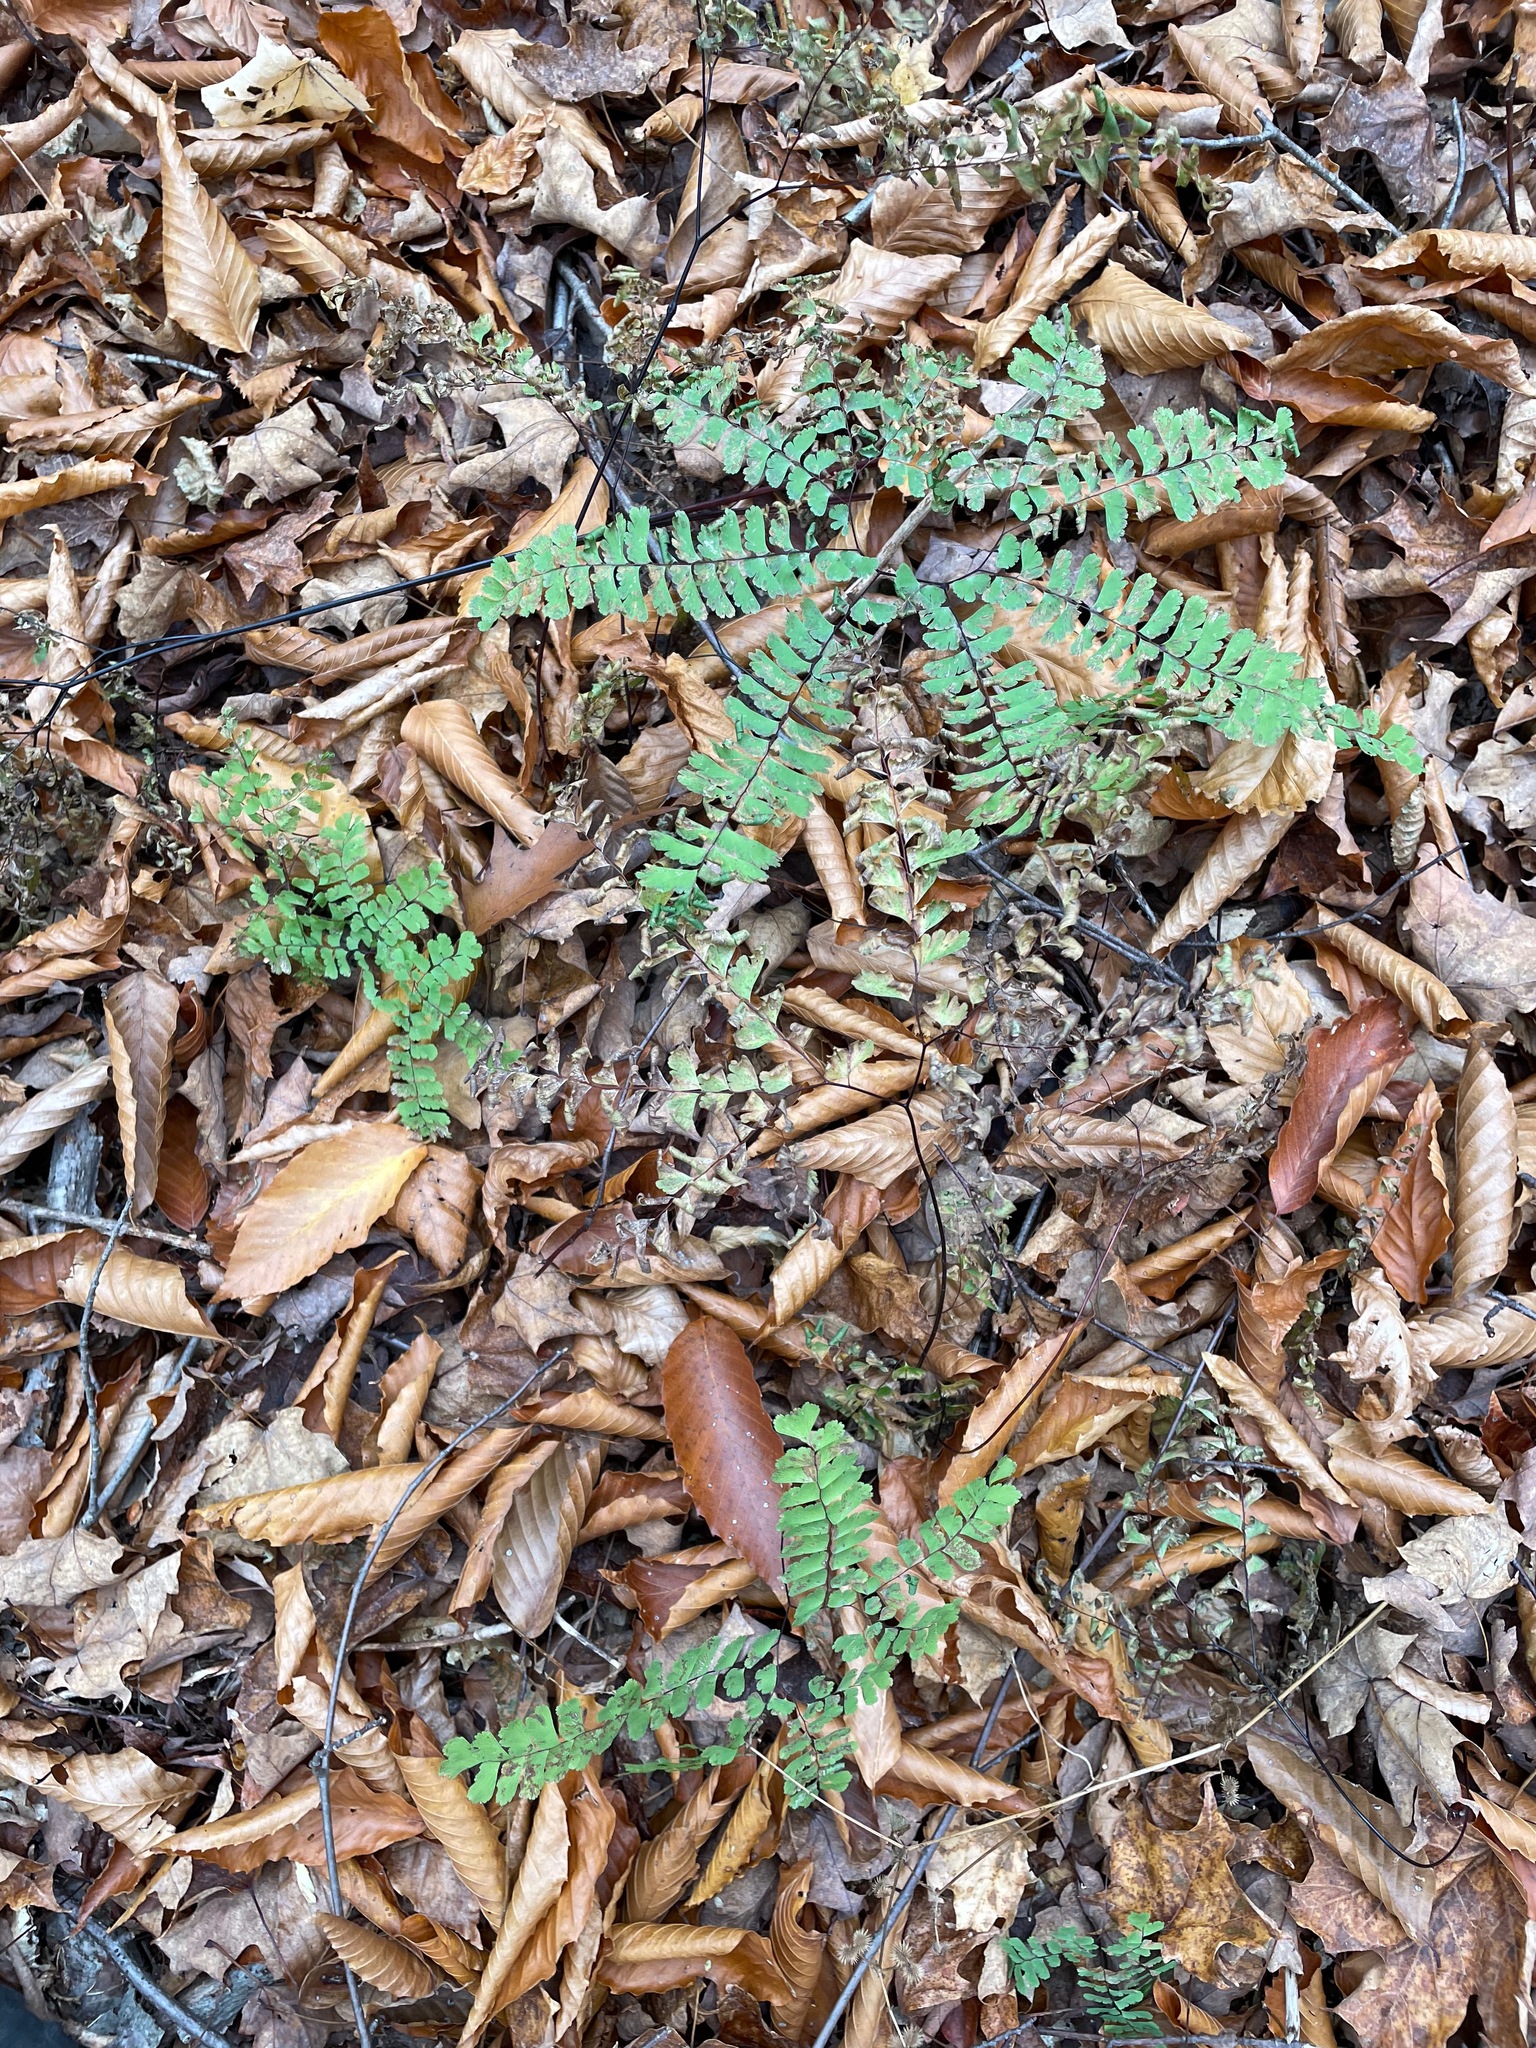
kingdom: Plantae
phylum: Tracheophyta
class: Polypodiopsida
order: Polypodiales
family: Pteridaceae
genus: Adiantum
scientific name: Adiantum pedatum
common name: Five-finger fern
